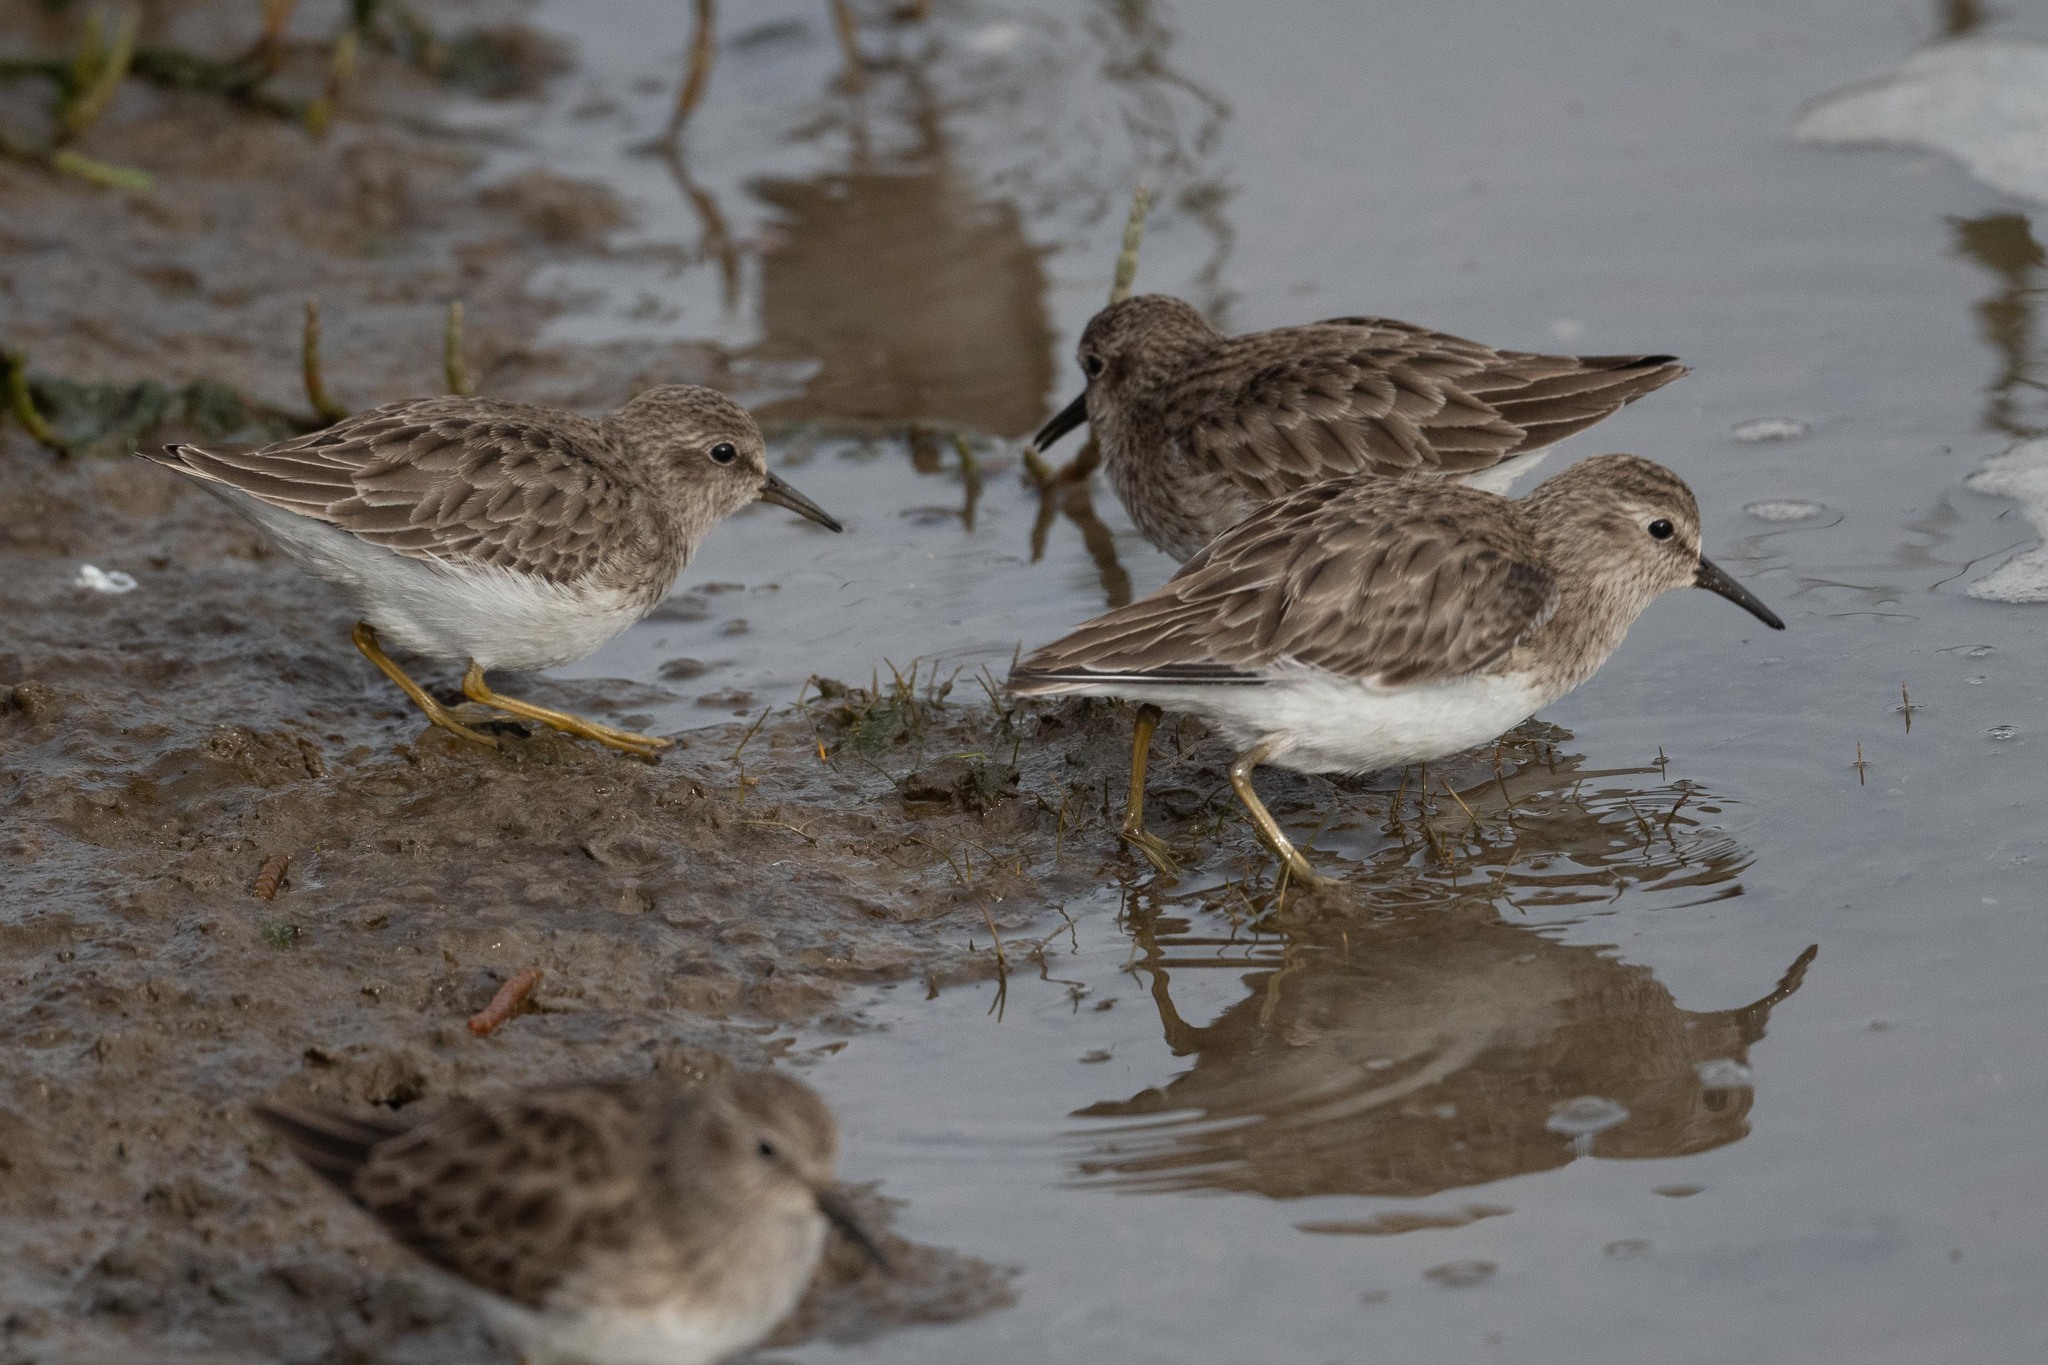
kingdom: Animalia
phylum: Chordata
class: Aves
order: Charadriiformes
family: Scolopacidae
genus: Calidris
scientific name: Calidris minutilla
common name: Least sandpiper
